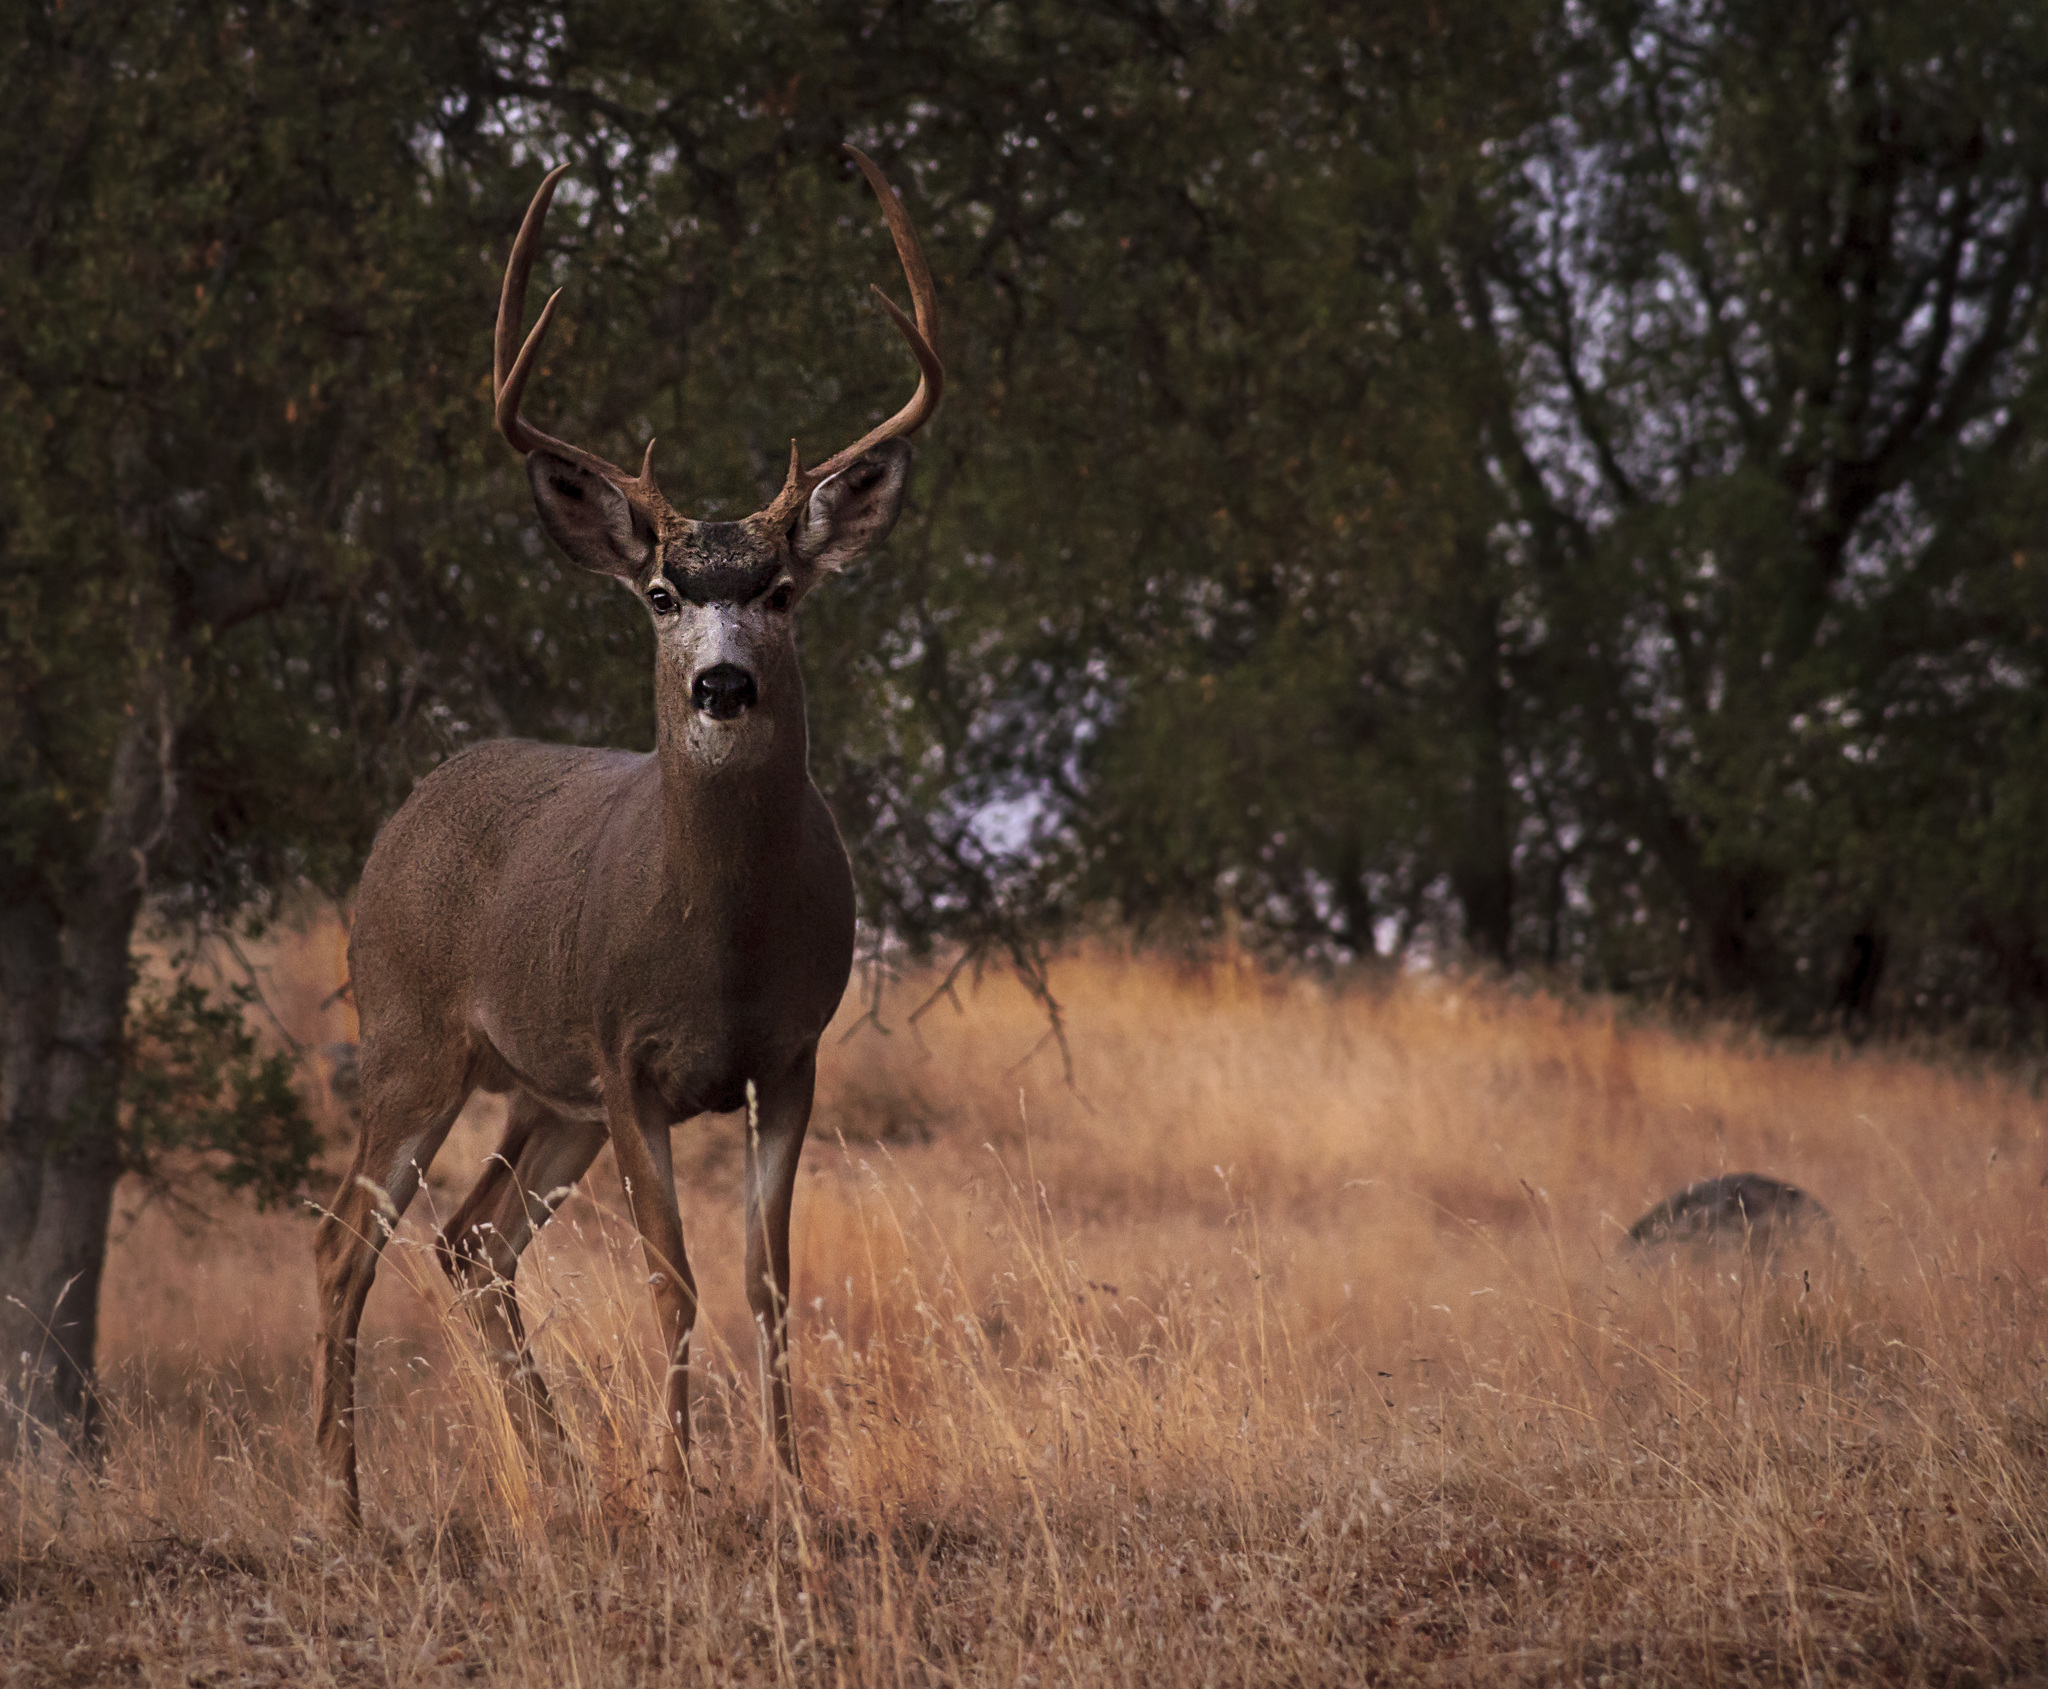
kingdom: Animalia
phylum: Chordata
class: Mammalia
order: Artiodactyla
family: Cervidae
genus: Odocoileus
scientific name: Odocoileus hemionus
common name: Mule deer
